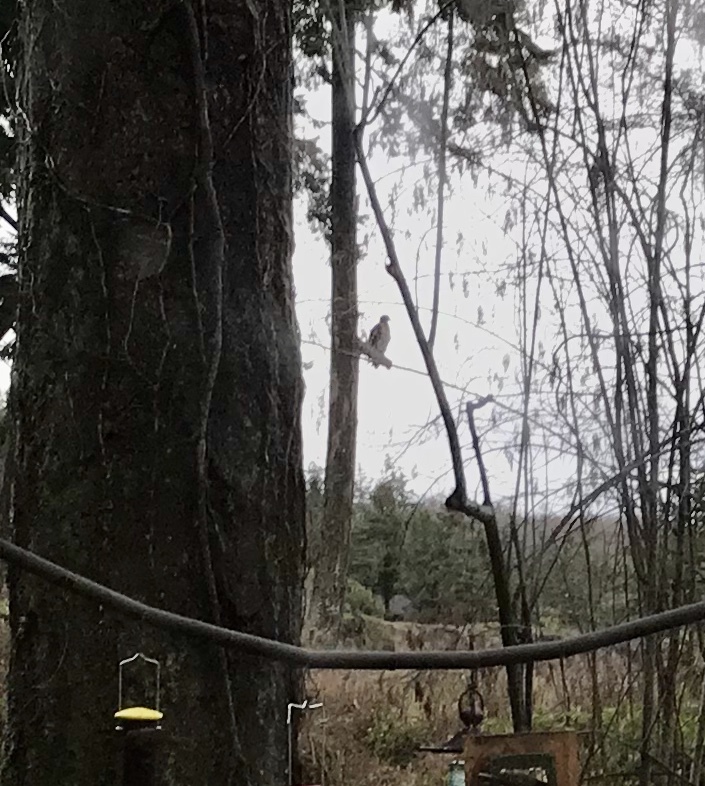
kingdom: Animalia
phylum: Chordata
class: Aves
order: Accipitriformes
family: Accipitridae
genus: Haliaeetus
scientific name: Haliaeetus leucocephalus
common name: Bald eagle
